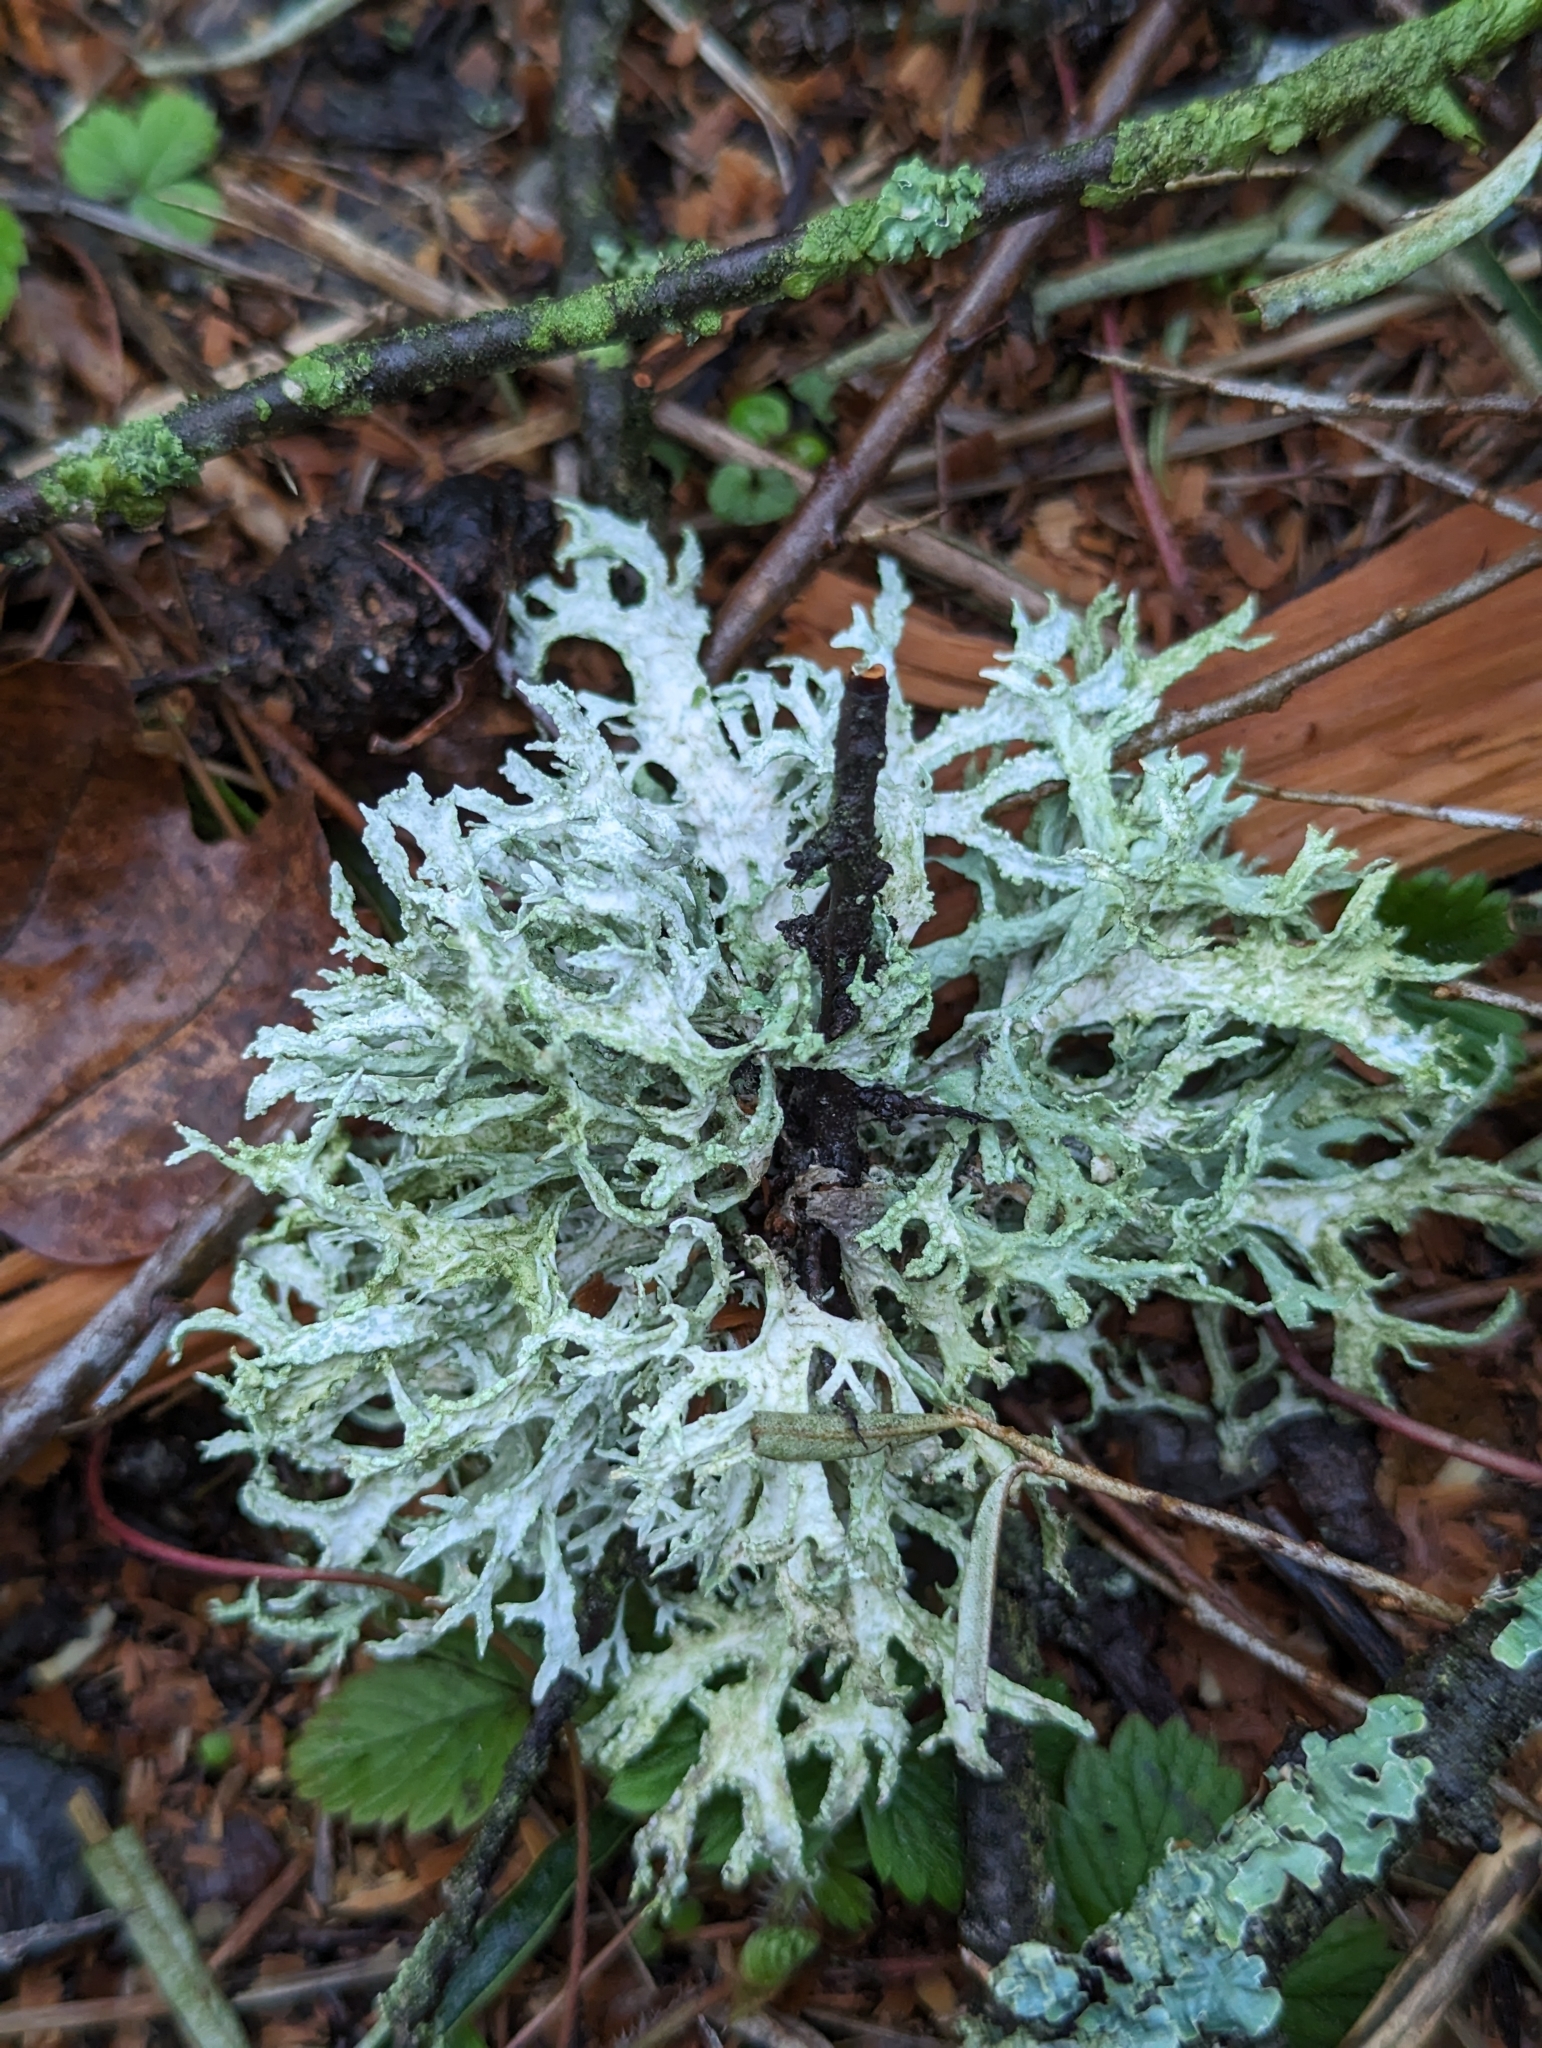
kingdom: Fungi
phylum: Ascomycota
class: Lecanoromycetes
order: Lecanorales
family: Parmeliaceae
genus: Evernia
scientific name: Evernia prunastri
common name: Oak moss
